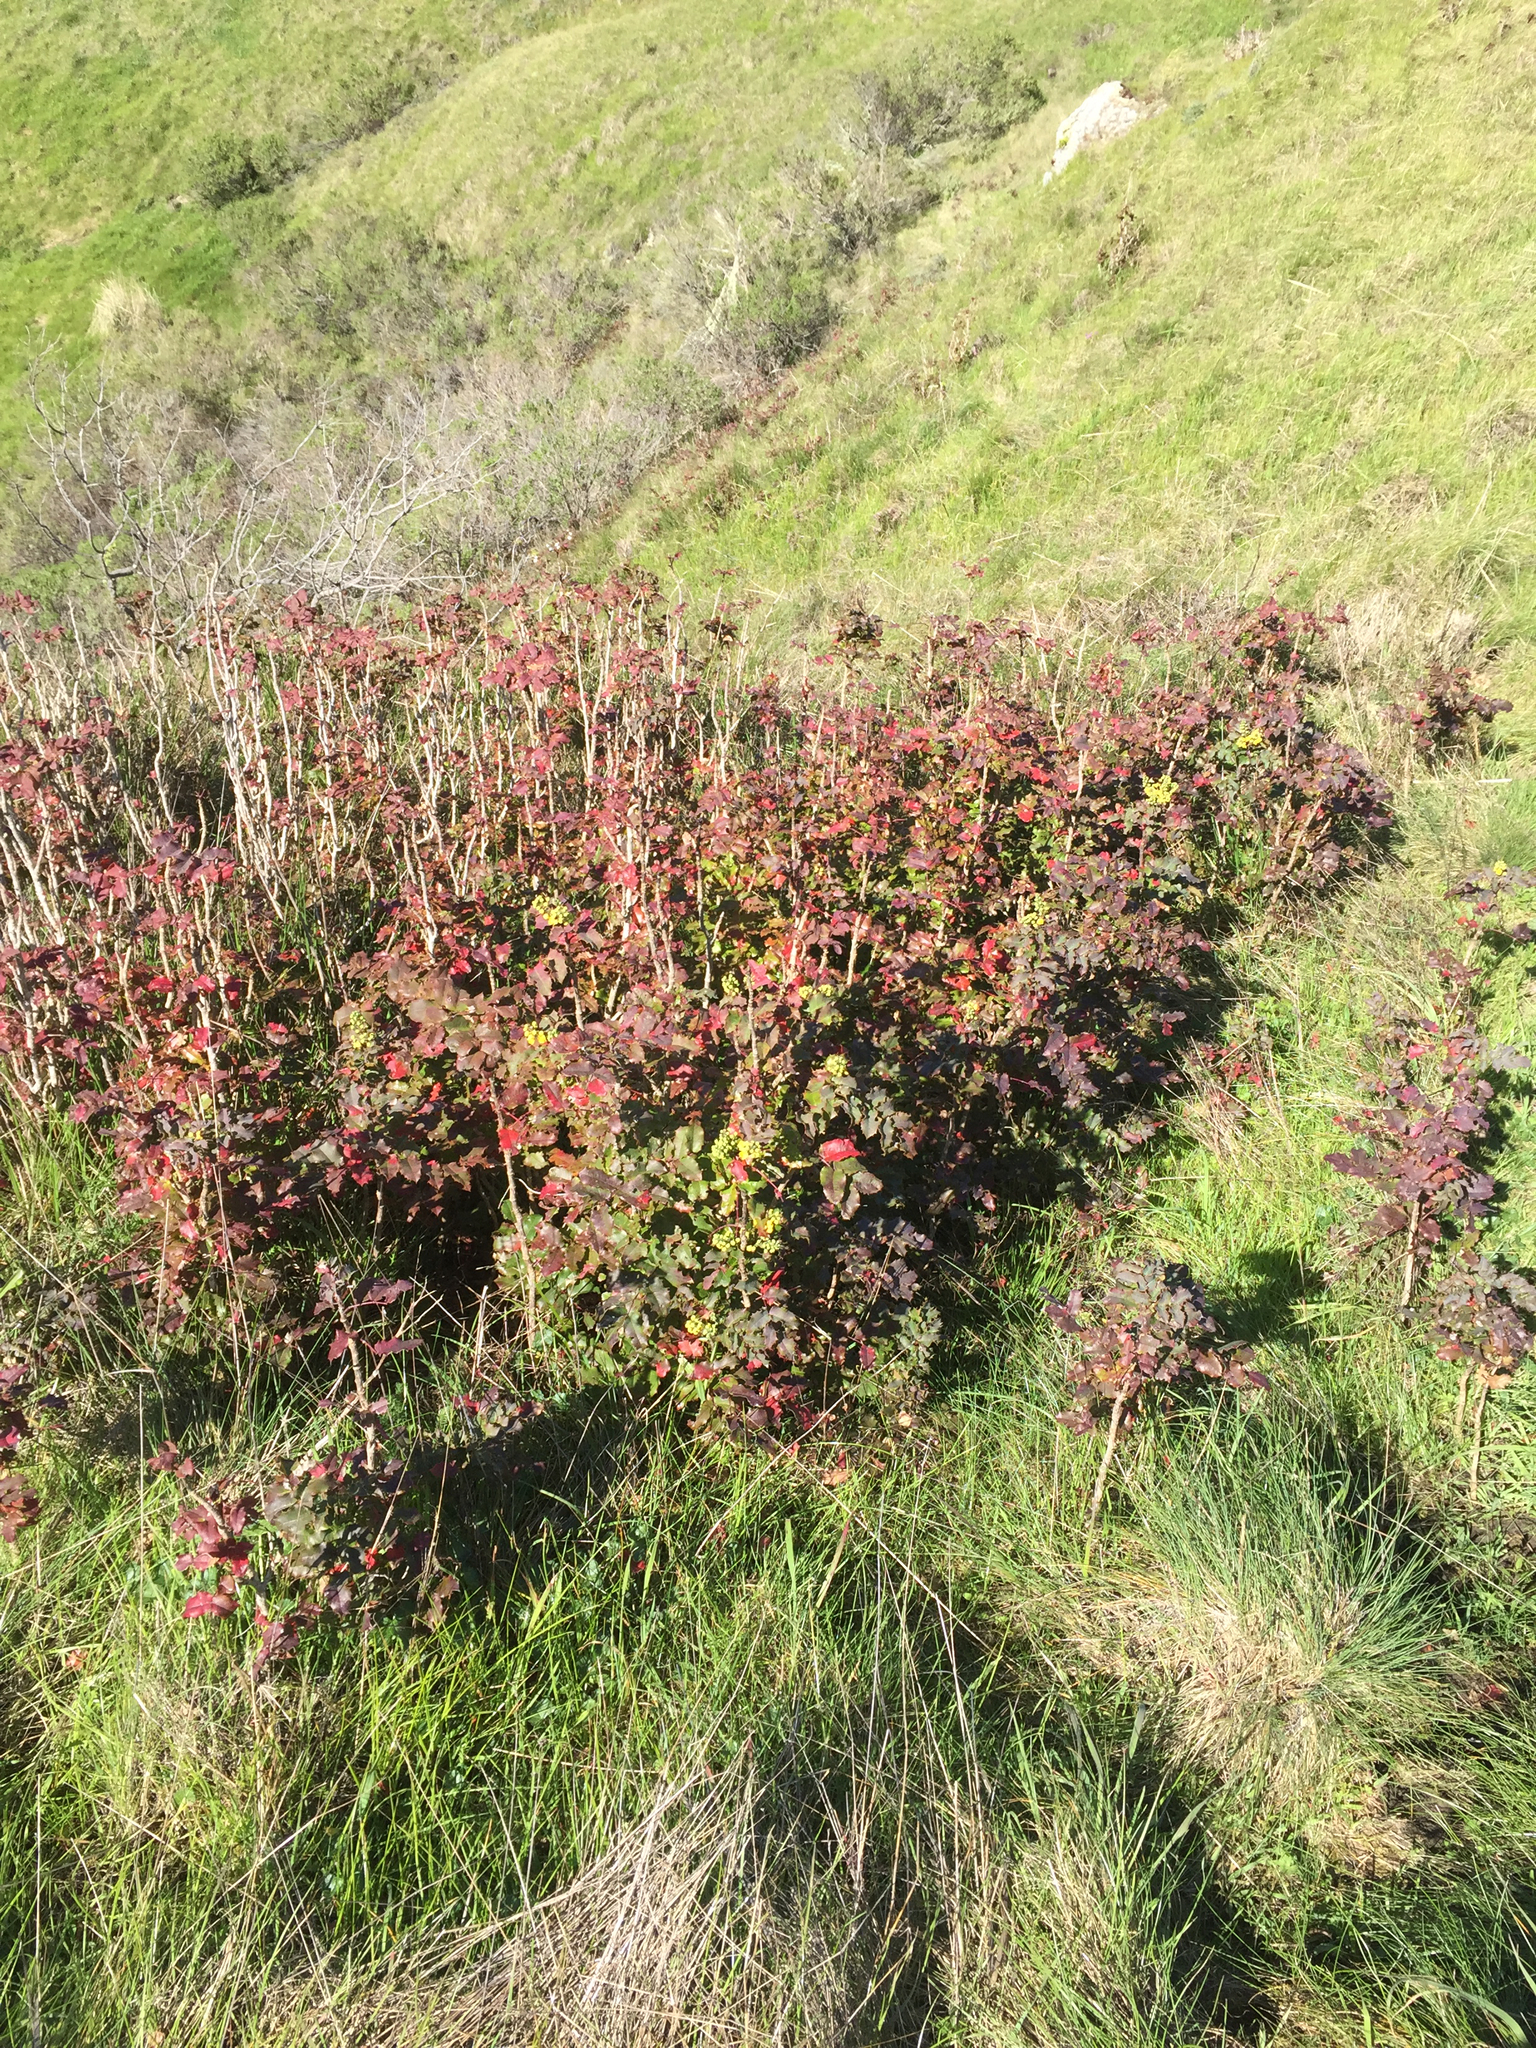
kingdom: Plantae
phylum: Tracheophyta
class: Magnoliopsida
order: Ranunculales
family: Berberidaceae
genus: Mahonia
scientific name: Mahonia
